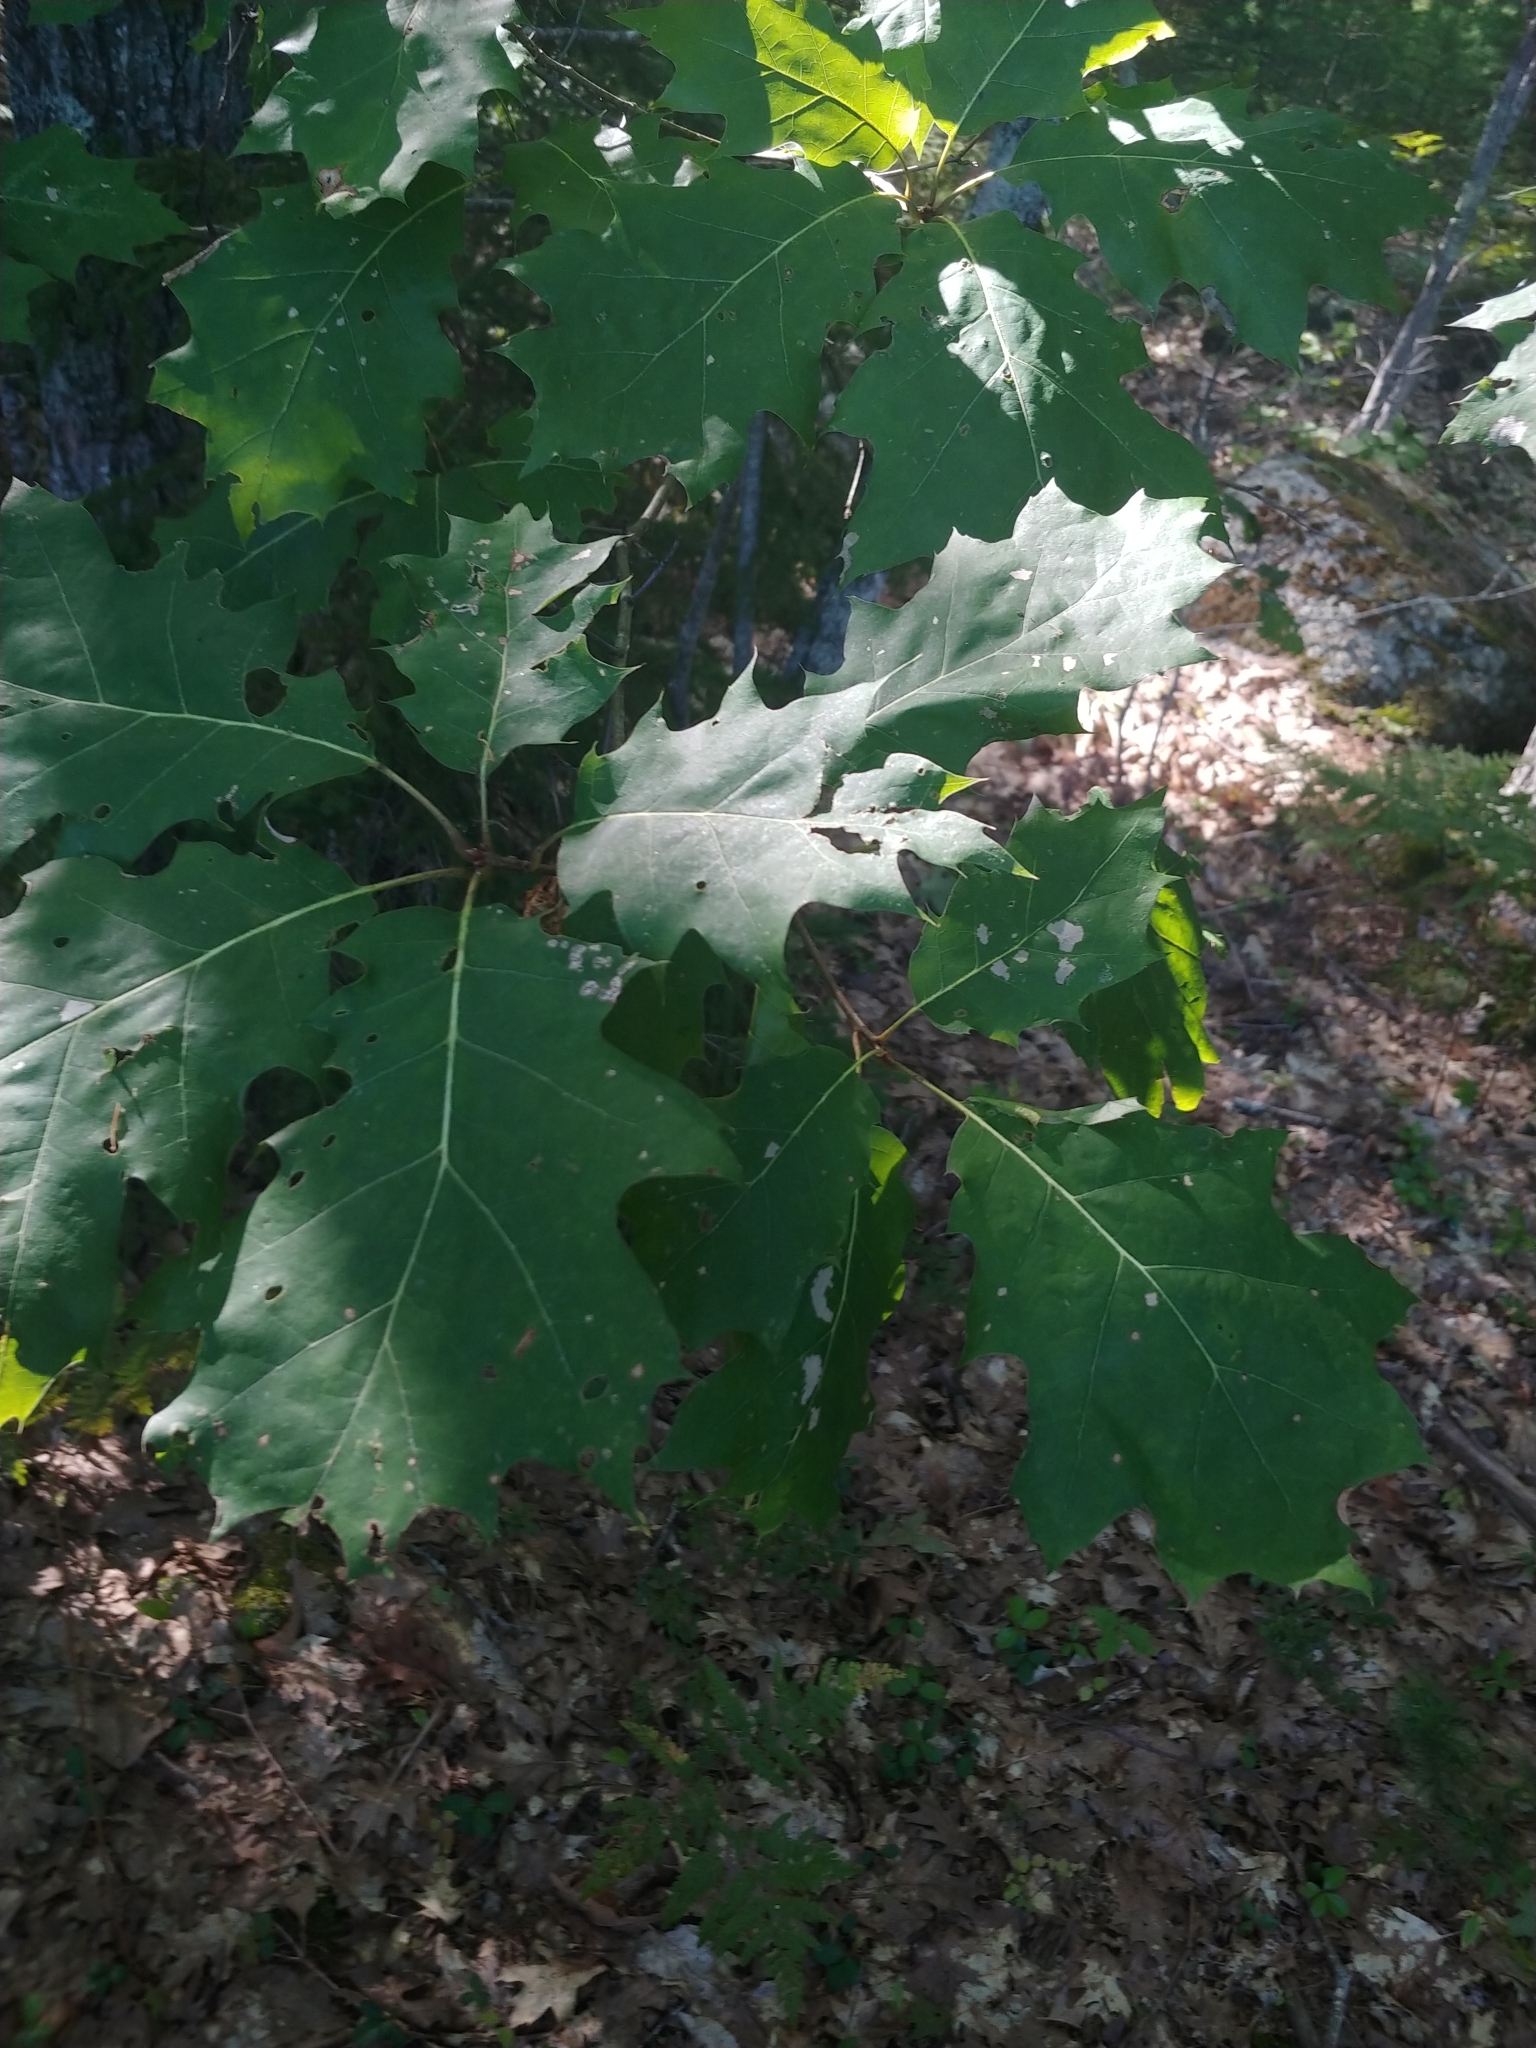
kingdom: Plantae
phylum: Tracheophyta
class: Magnoliopsida
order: Fagales
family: Fagaceae
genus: Quercus
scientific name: Quercus rubra
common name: Red oak
